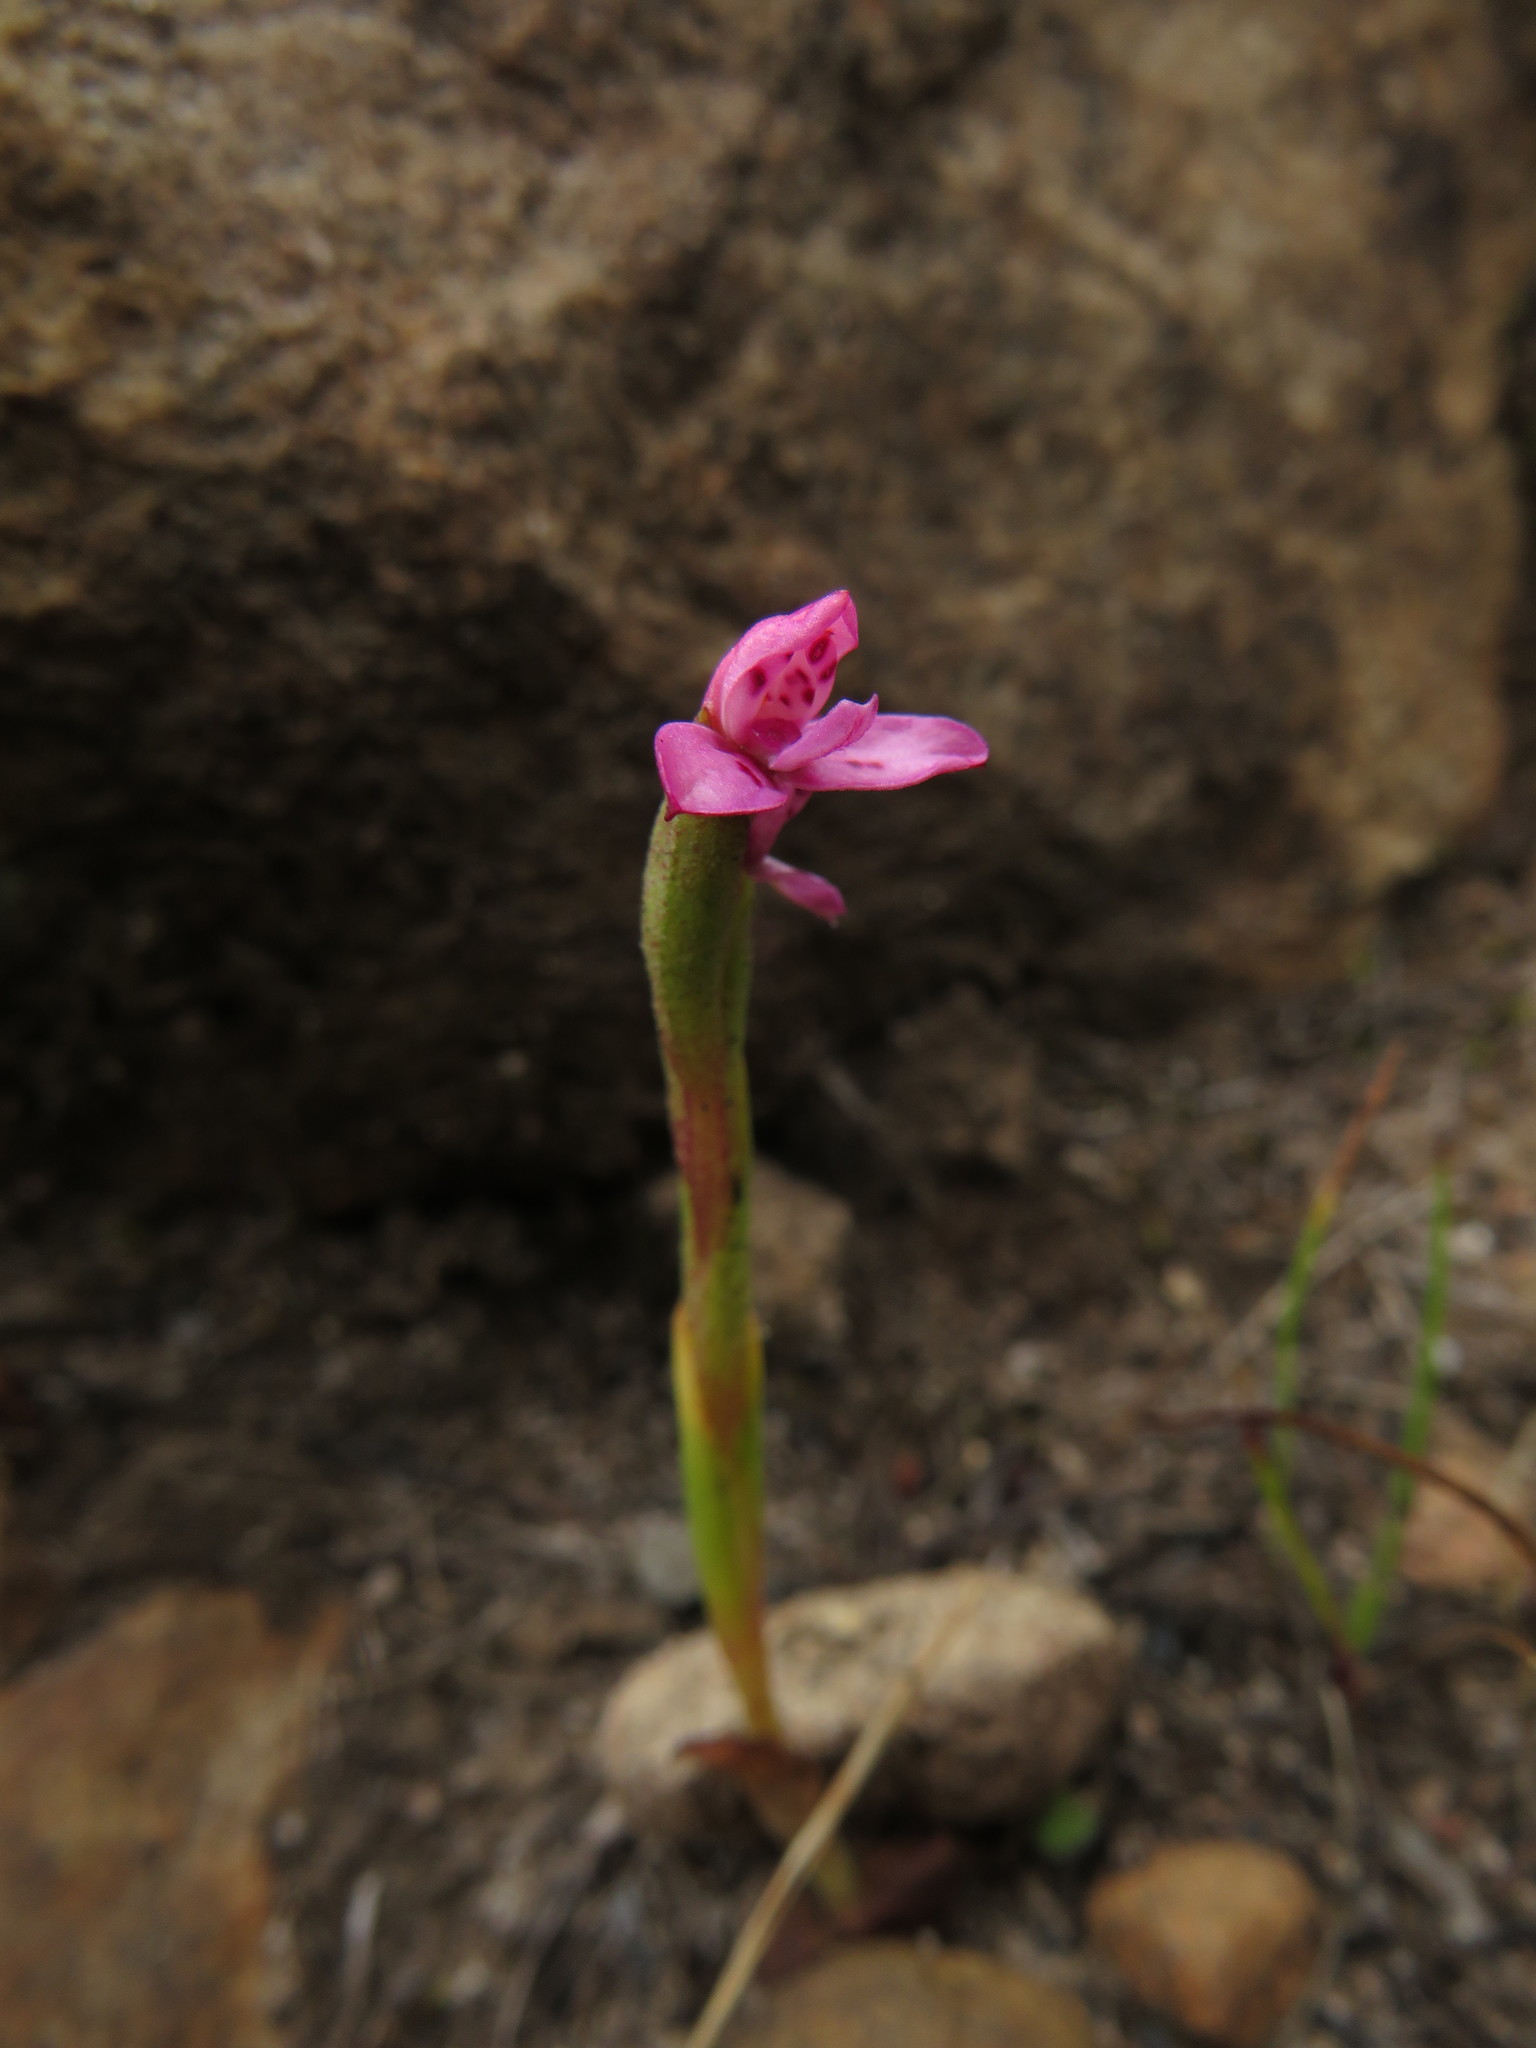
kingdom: Plantae
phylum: Tracheophyta
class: Liliopsida
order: Asparagales
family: Orchidaceae
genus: Disa
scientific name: Disa vaginata
